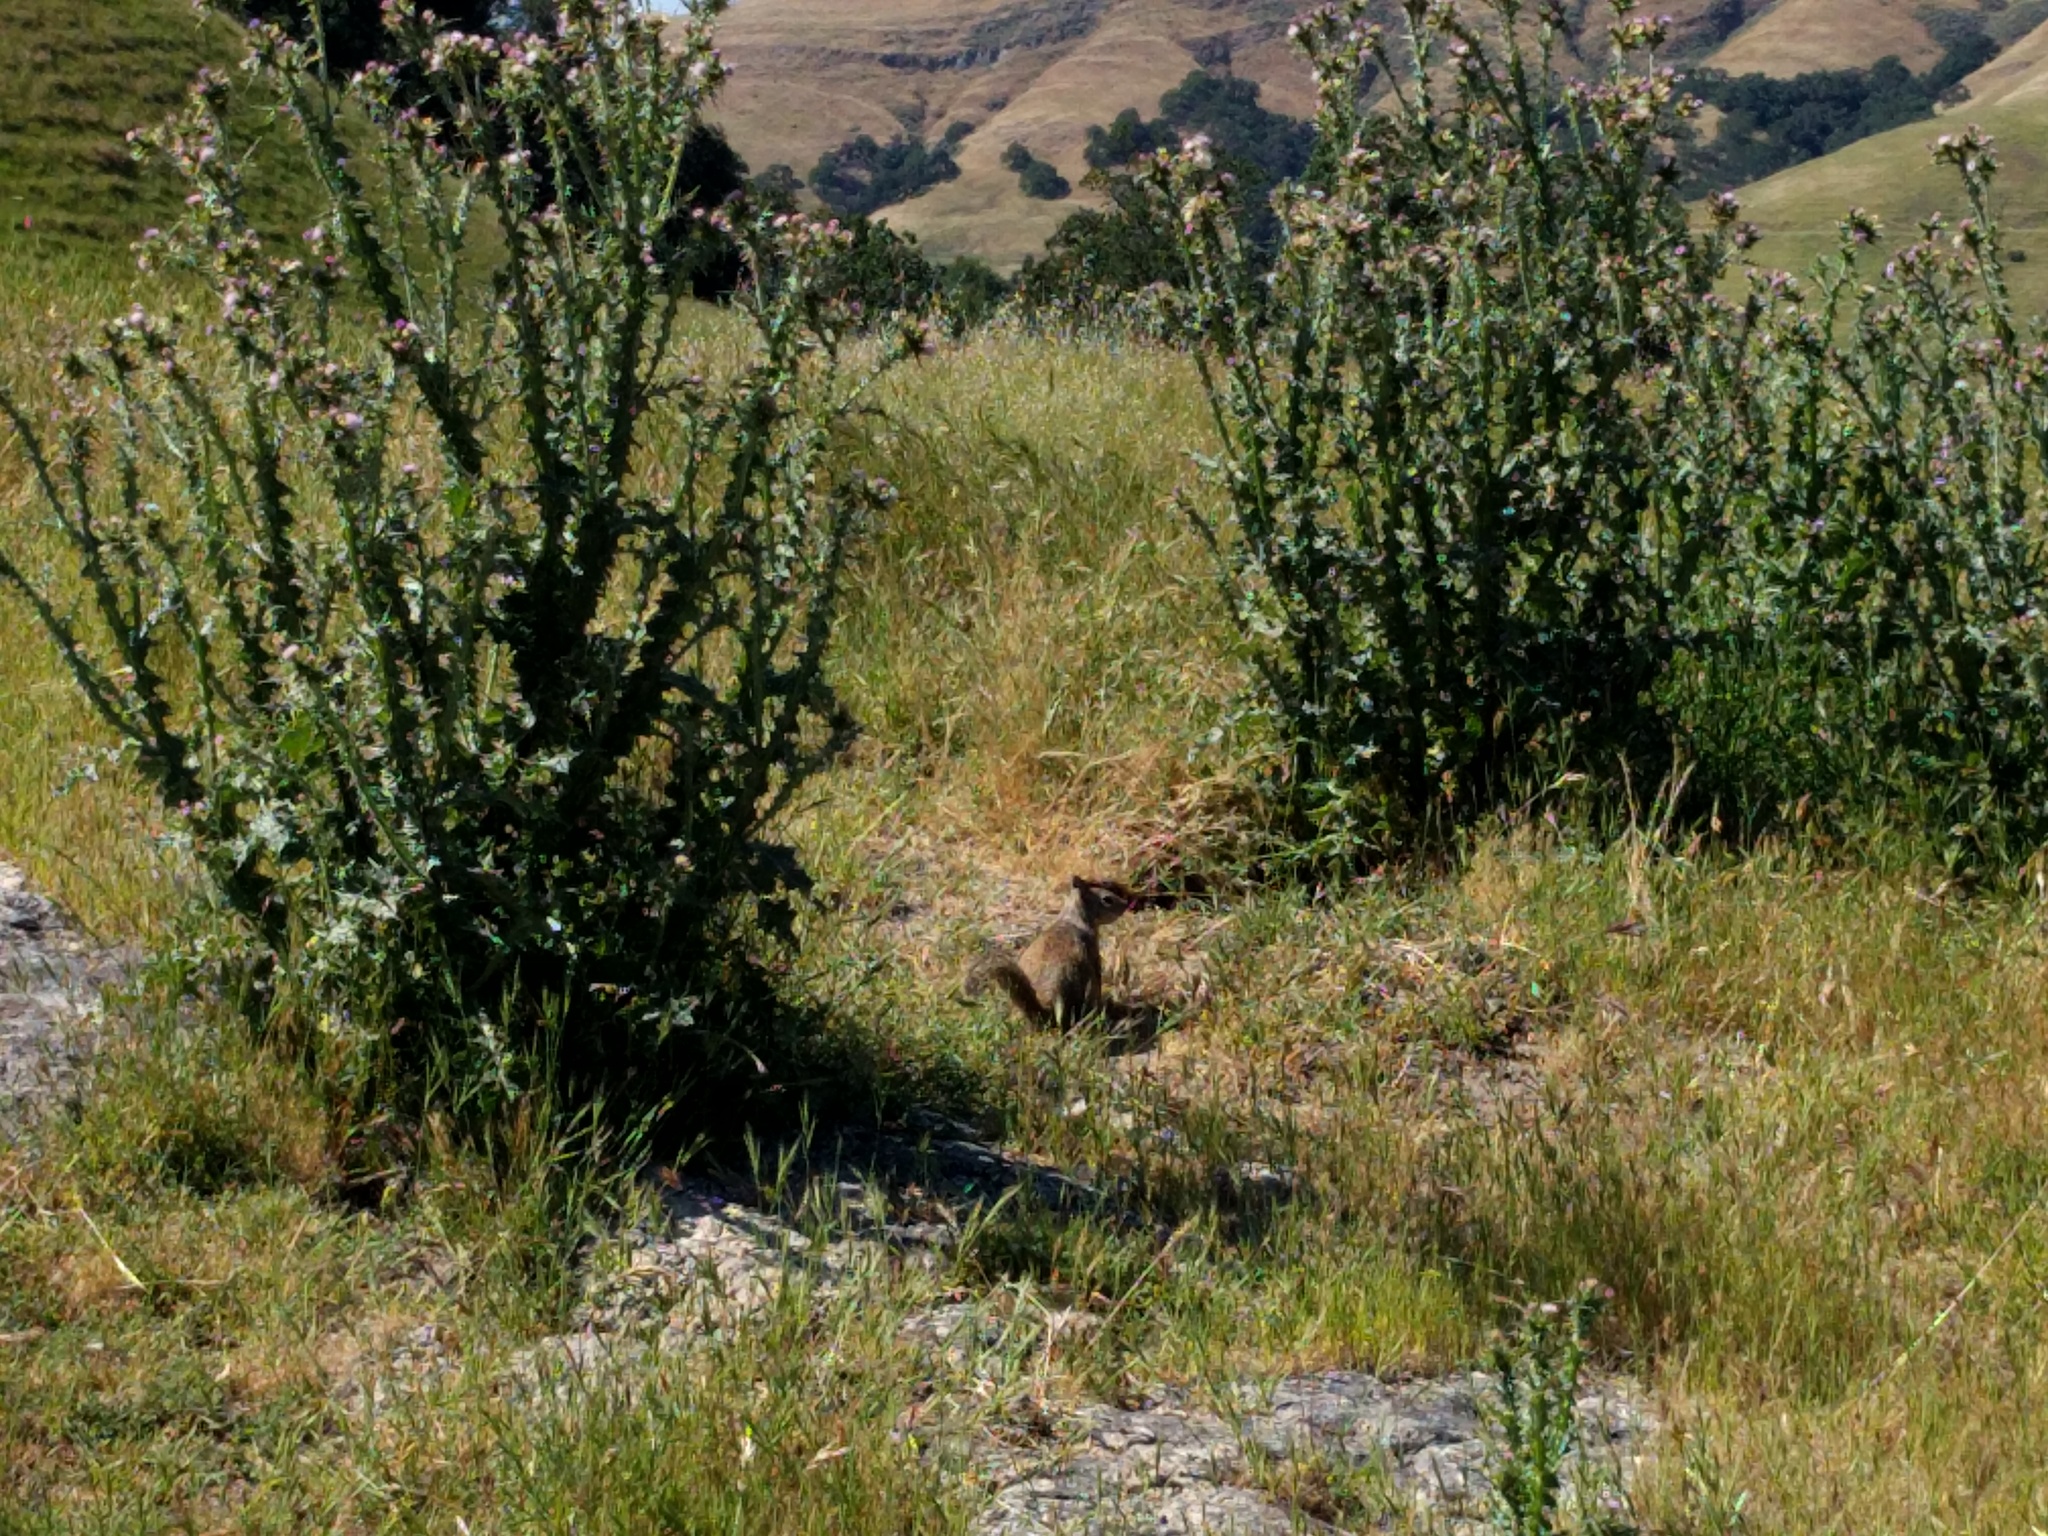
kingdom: Animalia
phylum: Chordata
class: Mammalia
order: Rodentia
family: Sciuridae
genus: Otospermophilus
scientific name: Otospermophilus beecheyi
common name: California ground squirrel
